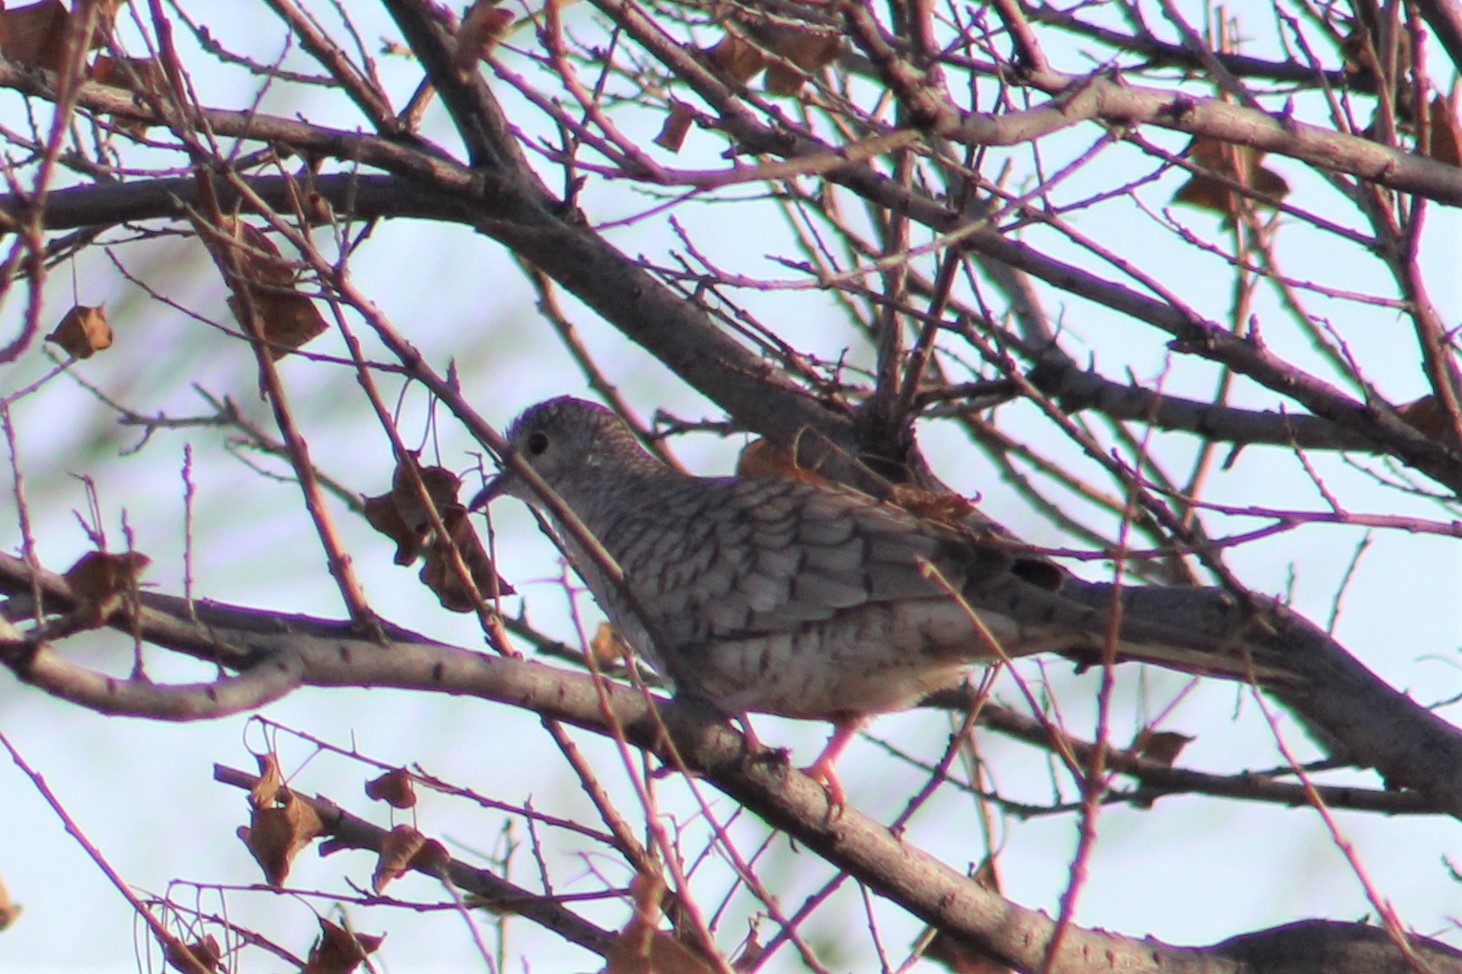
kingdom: Animalia
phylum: Chordata
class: Aves
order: Columbiformes
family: Columbidae
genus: Columbina
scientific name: Columbina inca
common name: Inca dove
